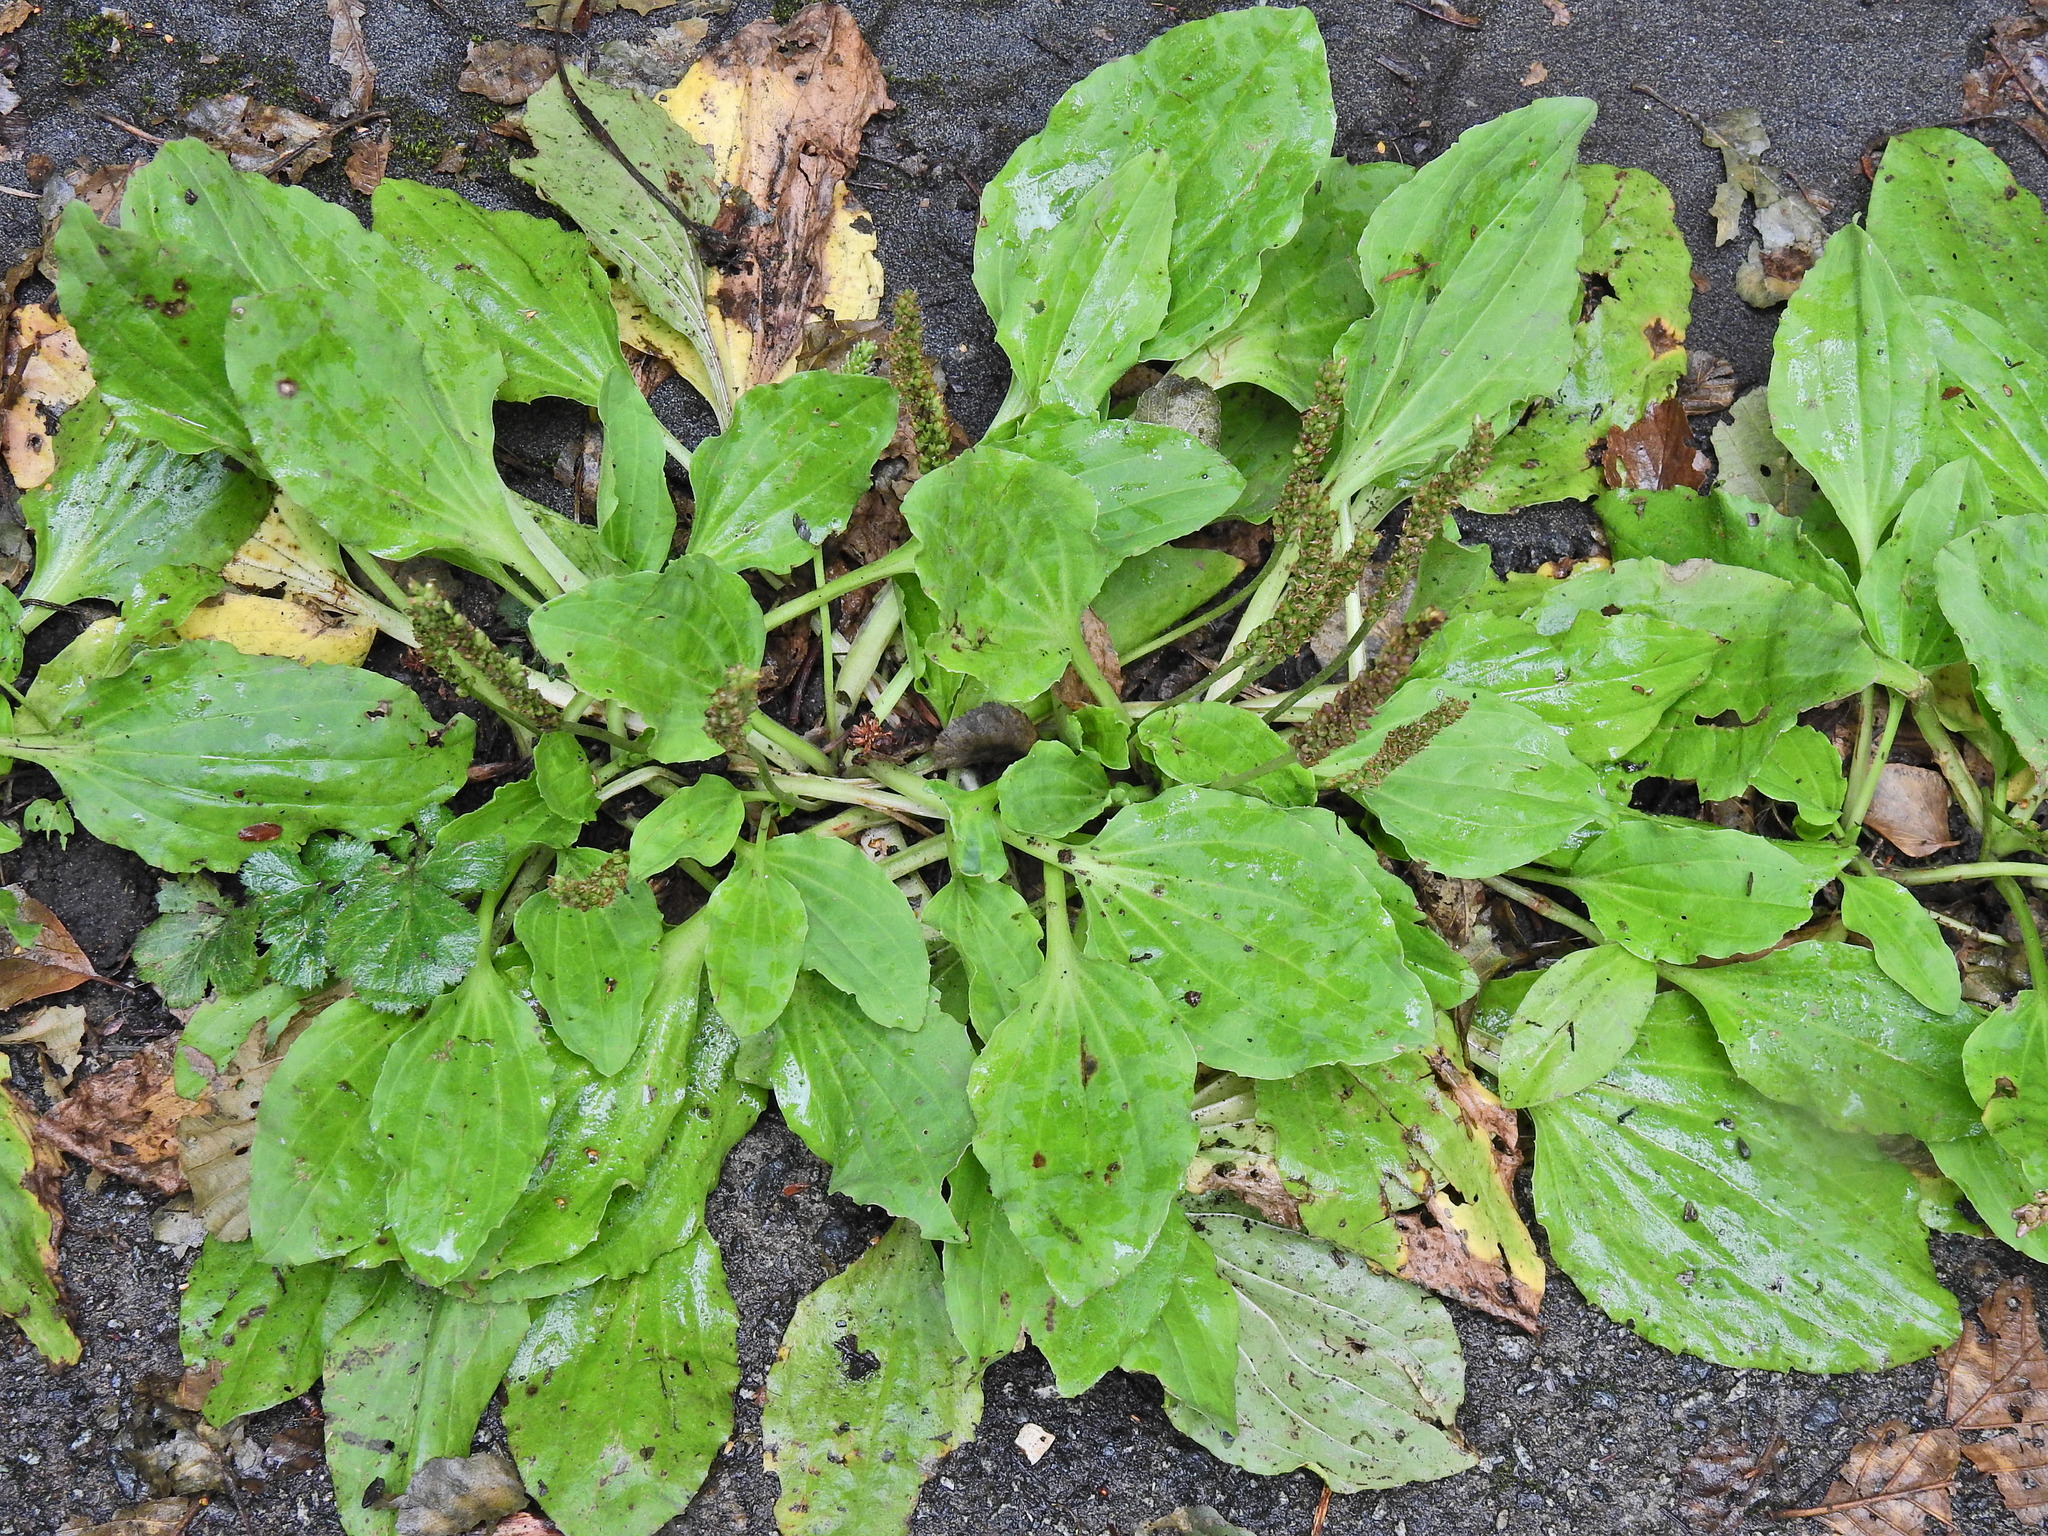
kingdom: Plantae
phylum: Tracheophyta
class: Magnoliopsida
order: Lamiales
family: Plantaginaceae
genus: Plantago
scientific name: Plantago major
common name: Common plantain
